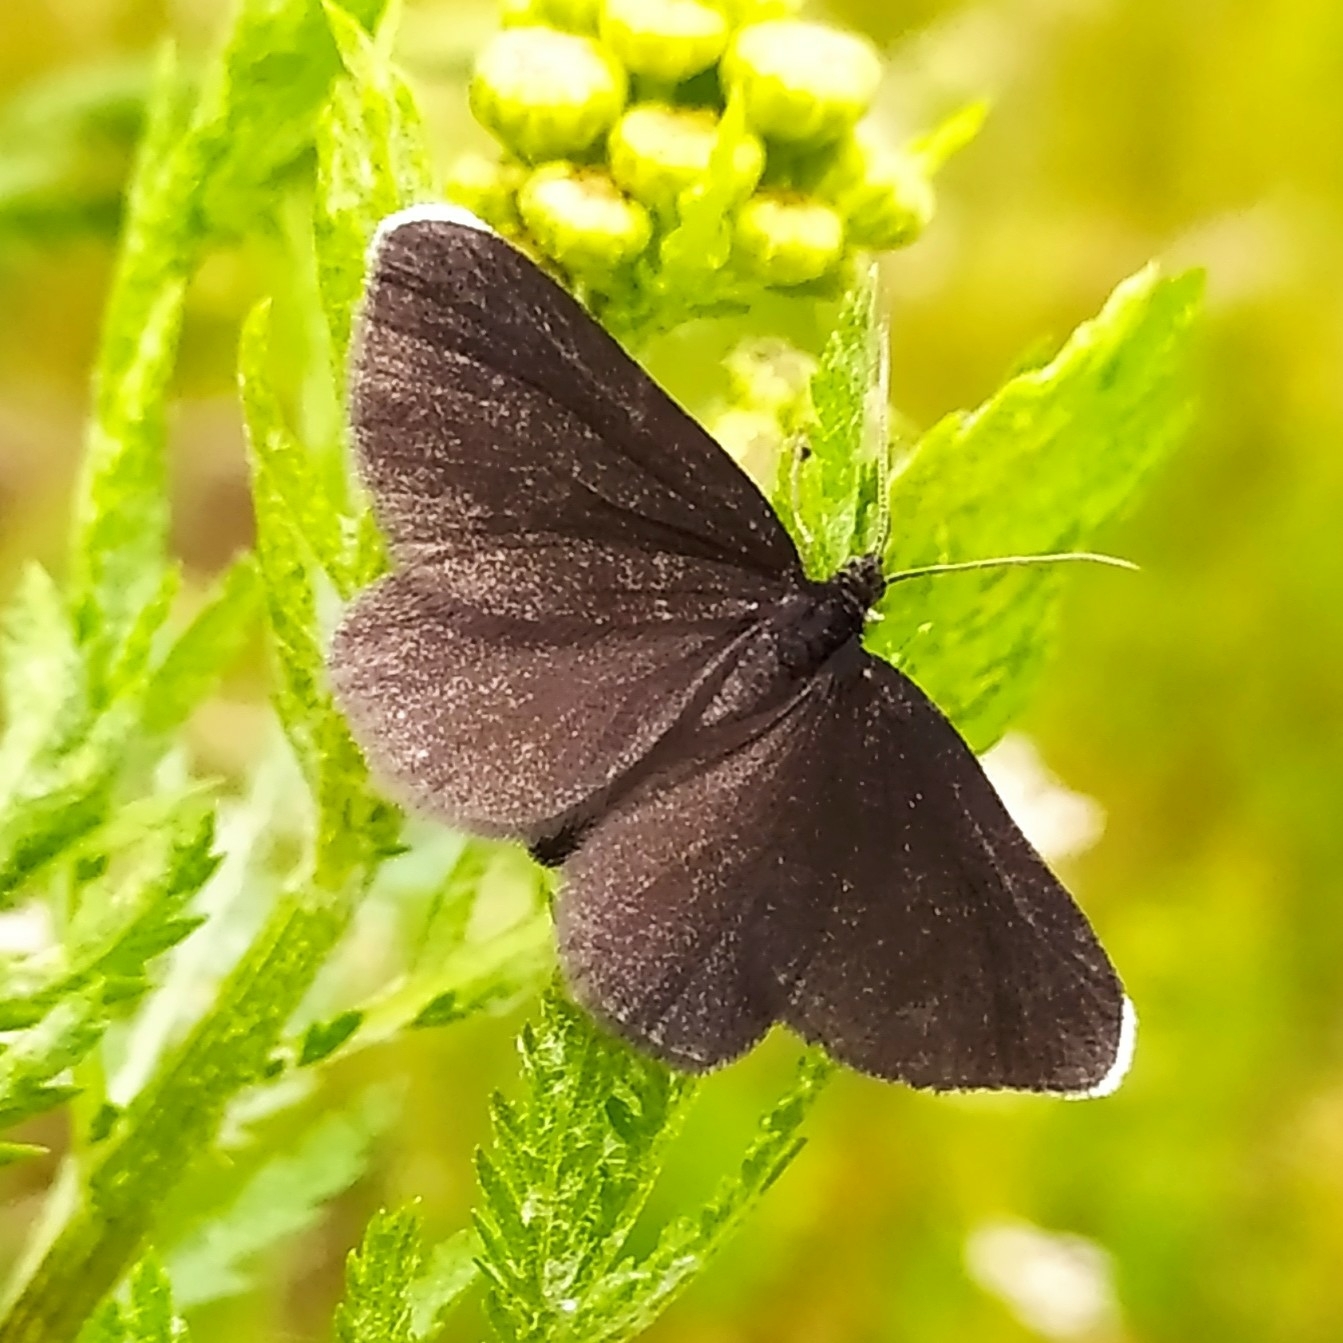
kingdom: Animalia
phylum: Arthropoda
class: Insecta
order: Lepidoptera
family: Geometridae
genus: Odezia
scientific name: Odezia atrata
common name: Chimney sweeper
